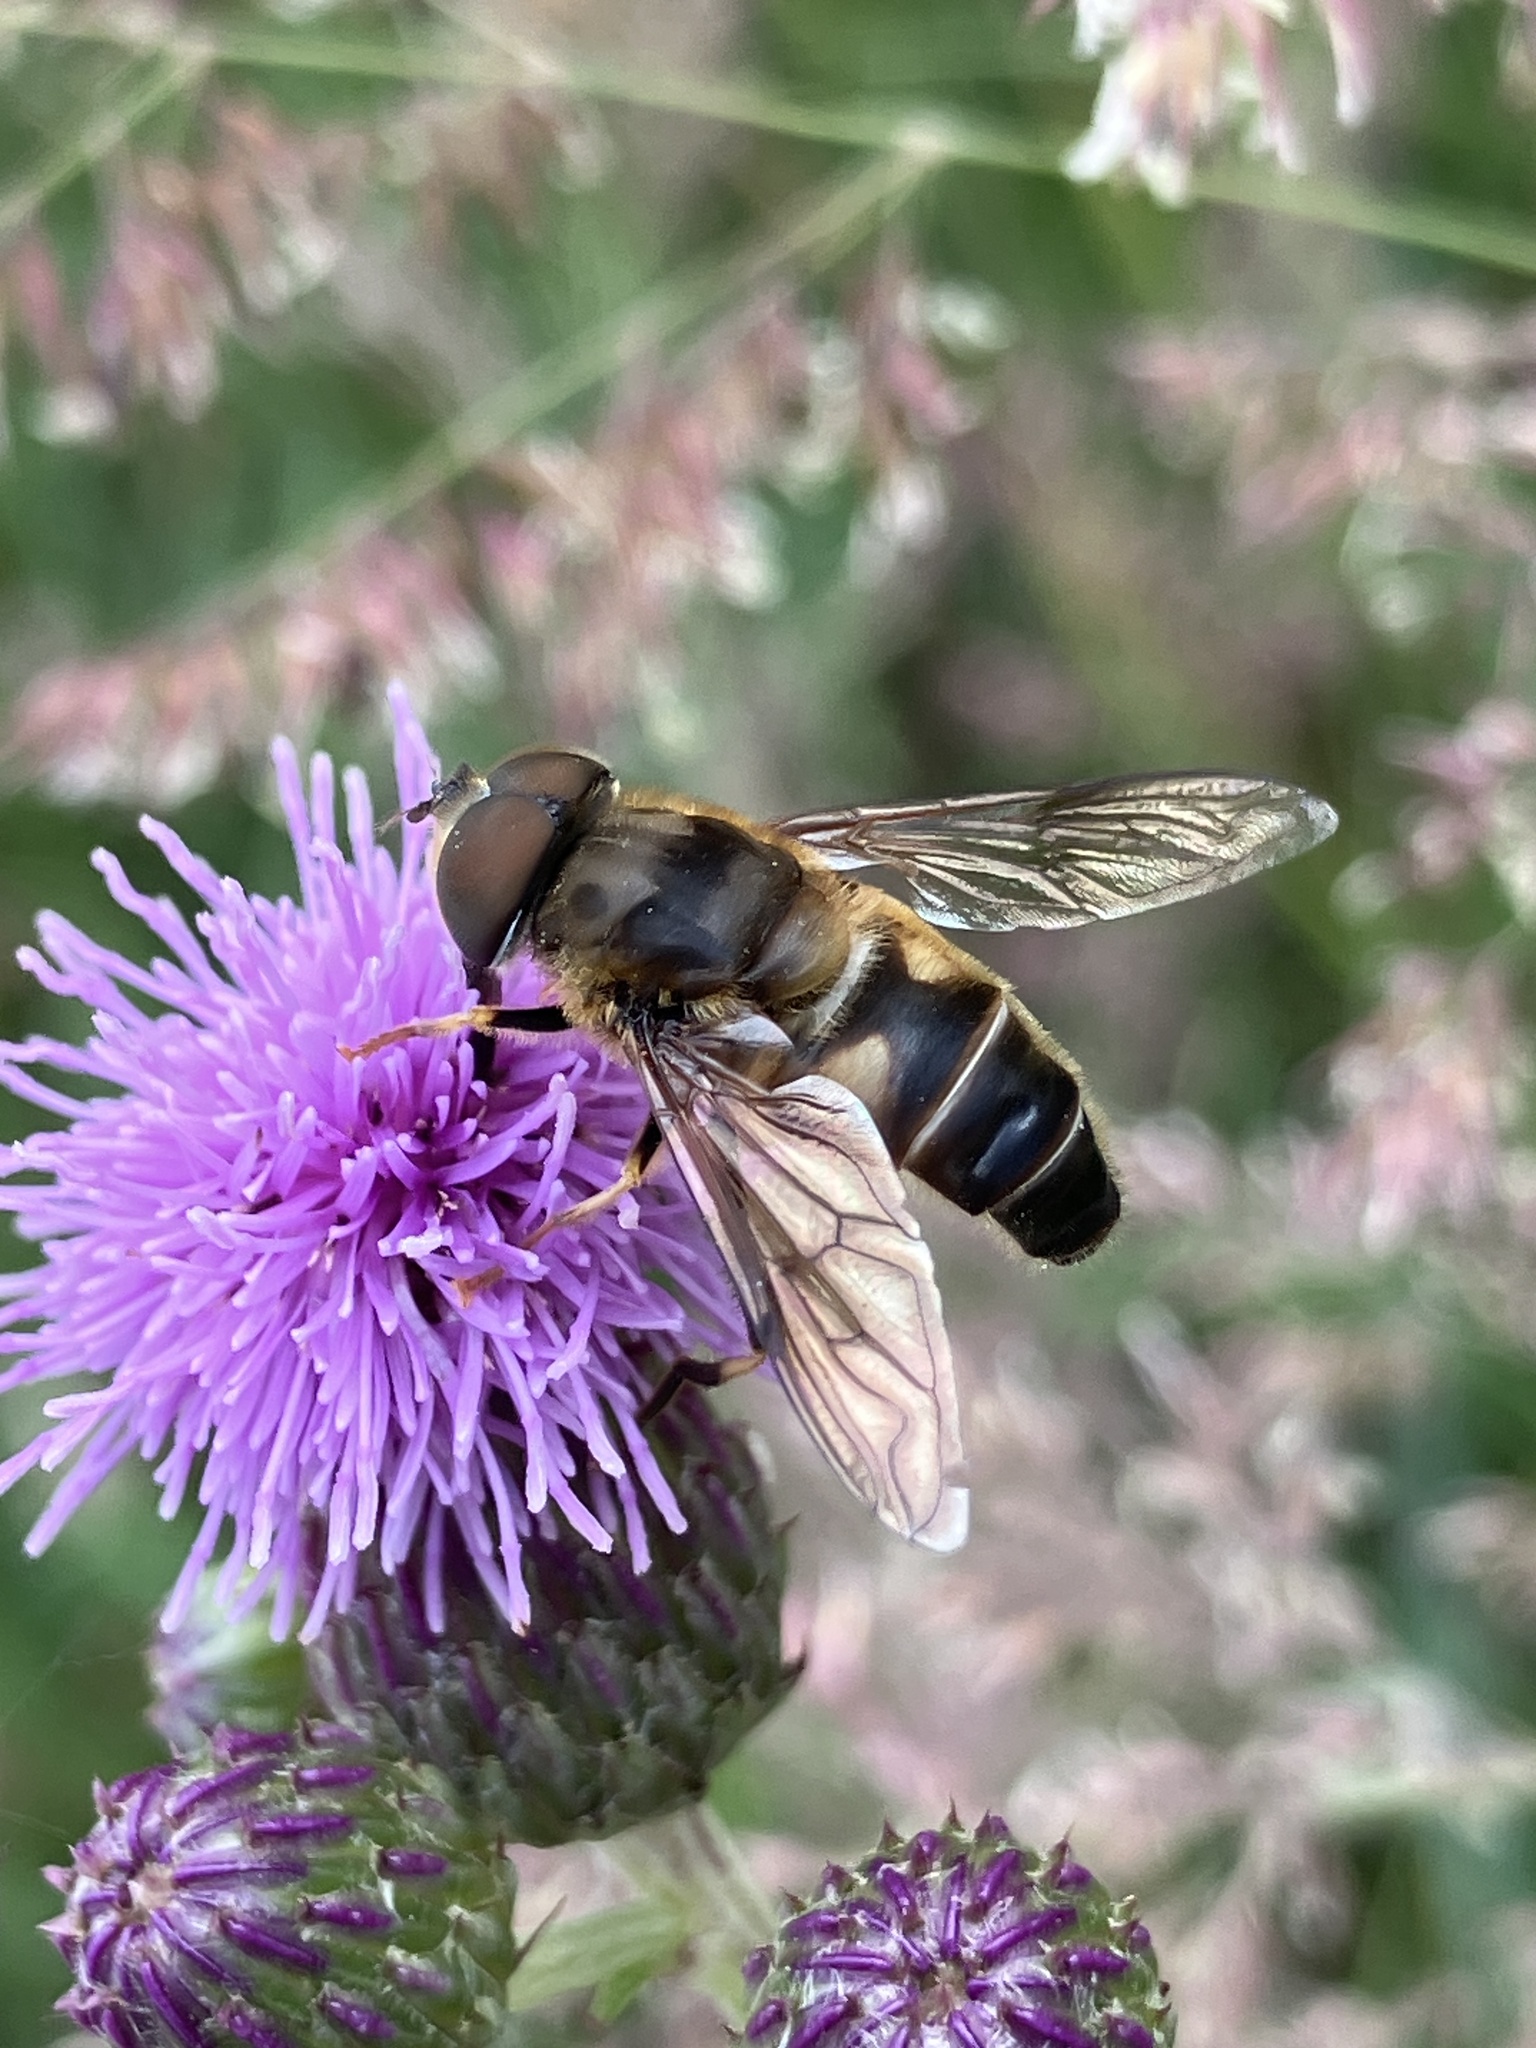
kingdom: Animalia
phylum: Arthropoda
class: Insecta
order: Diptera
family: Syrphidae
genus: Eristalis
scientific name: Eristalis pertinax
